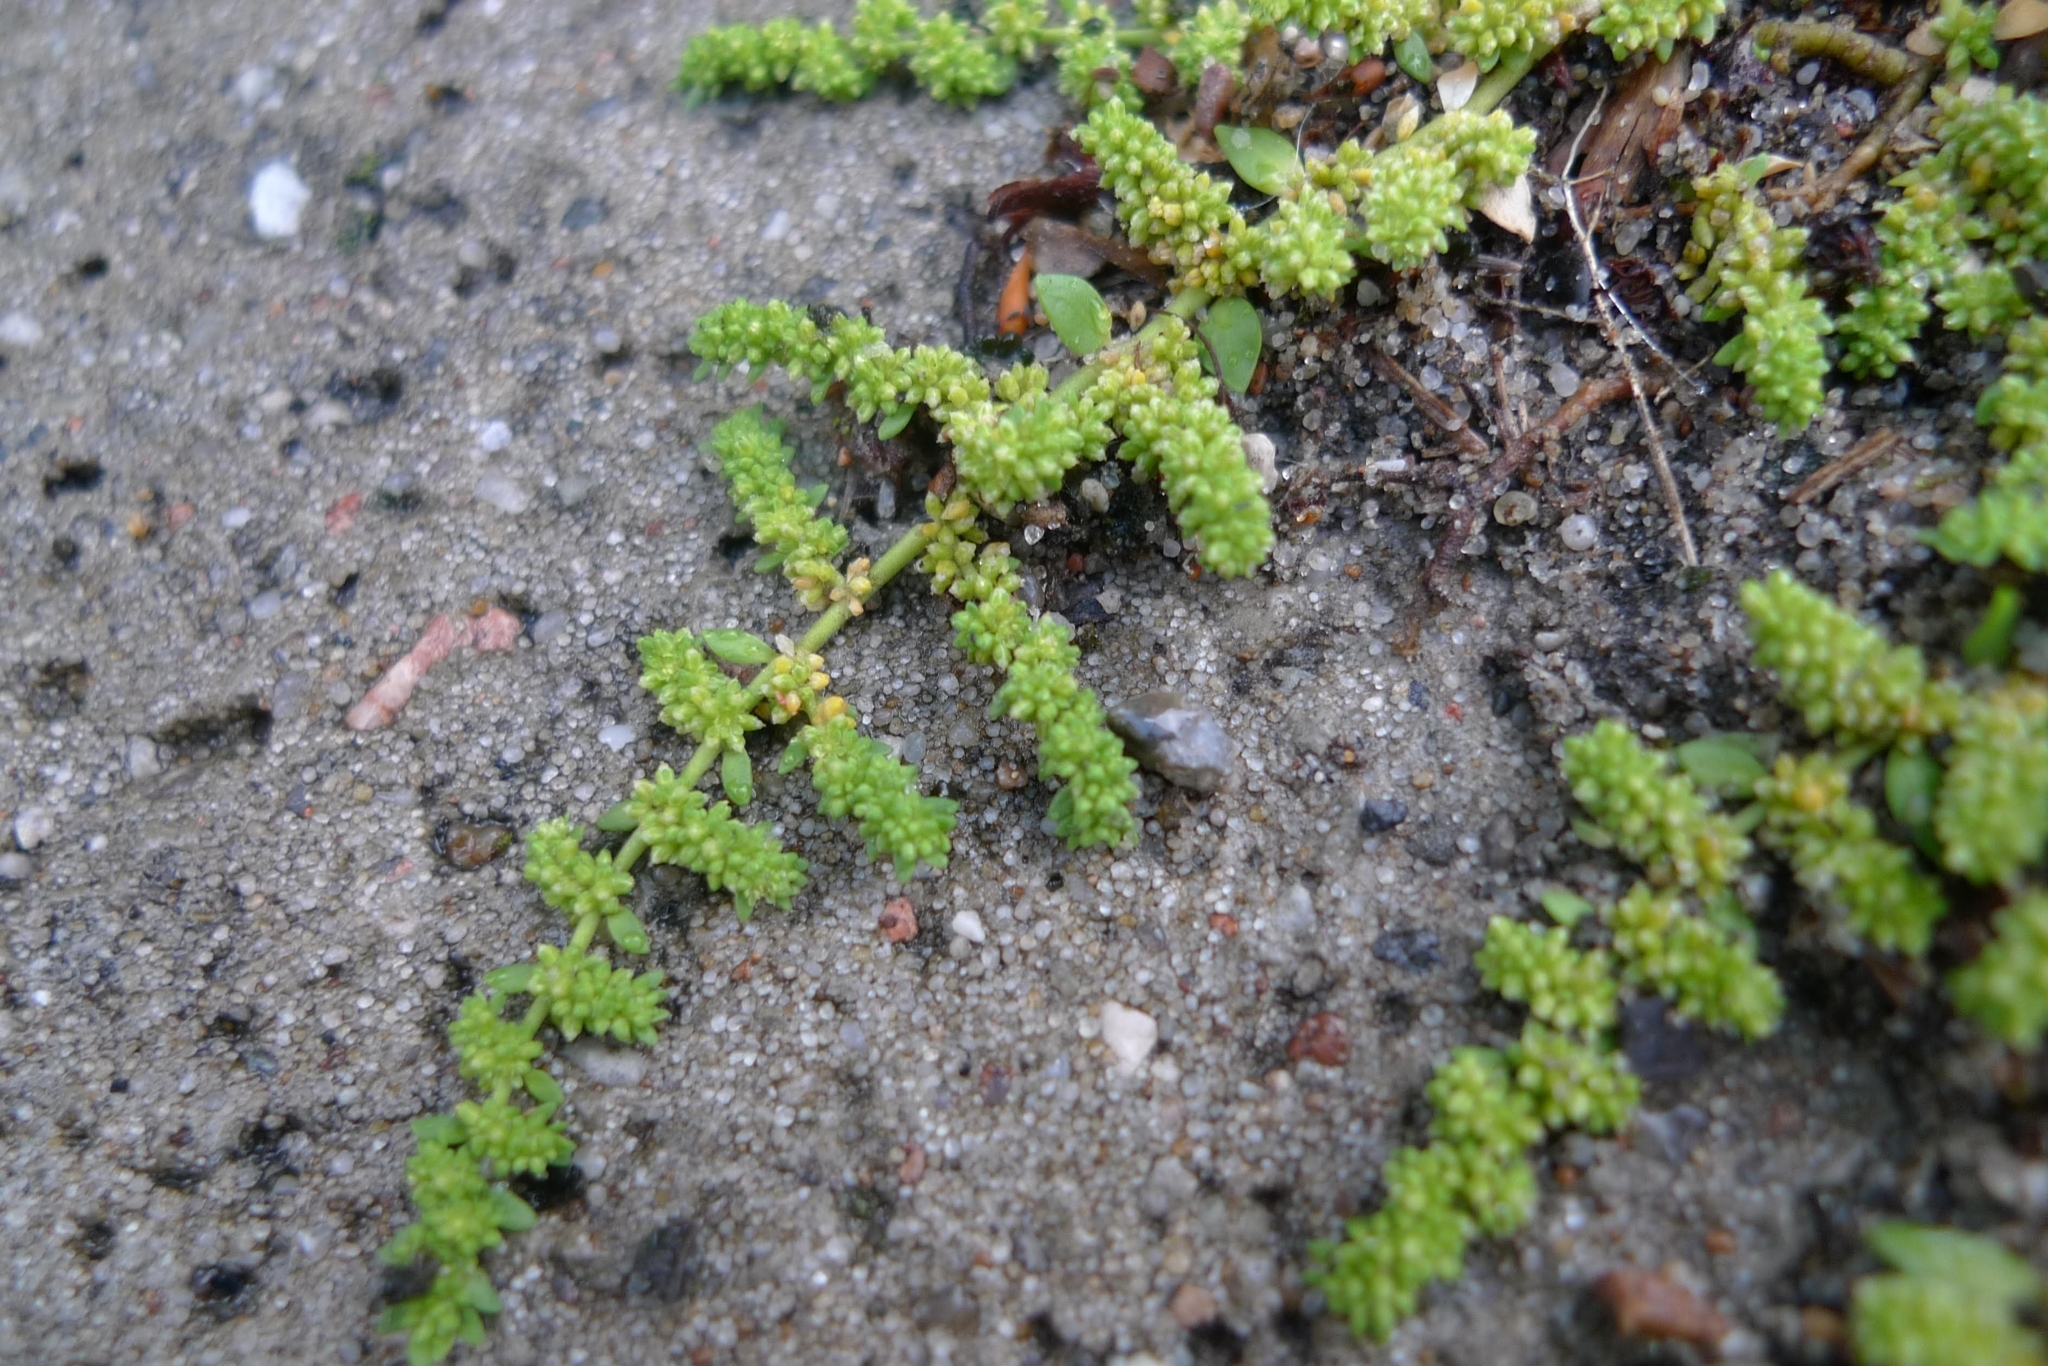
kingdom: Plantae
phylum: Tracheophyta
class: Magnoliopsida
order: Caryophyllales
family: Caryophyllaceae
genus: Herniaria
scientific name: Herniaria glabra
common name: Smooth rupturewort
